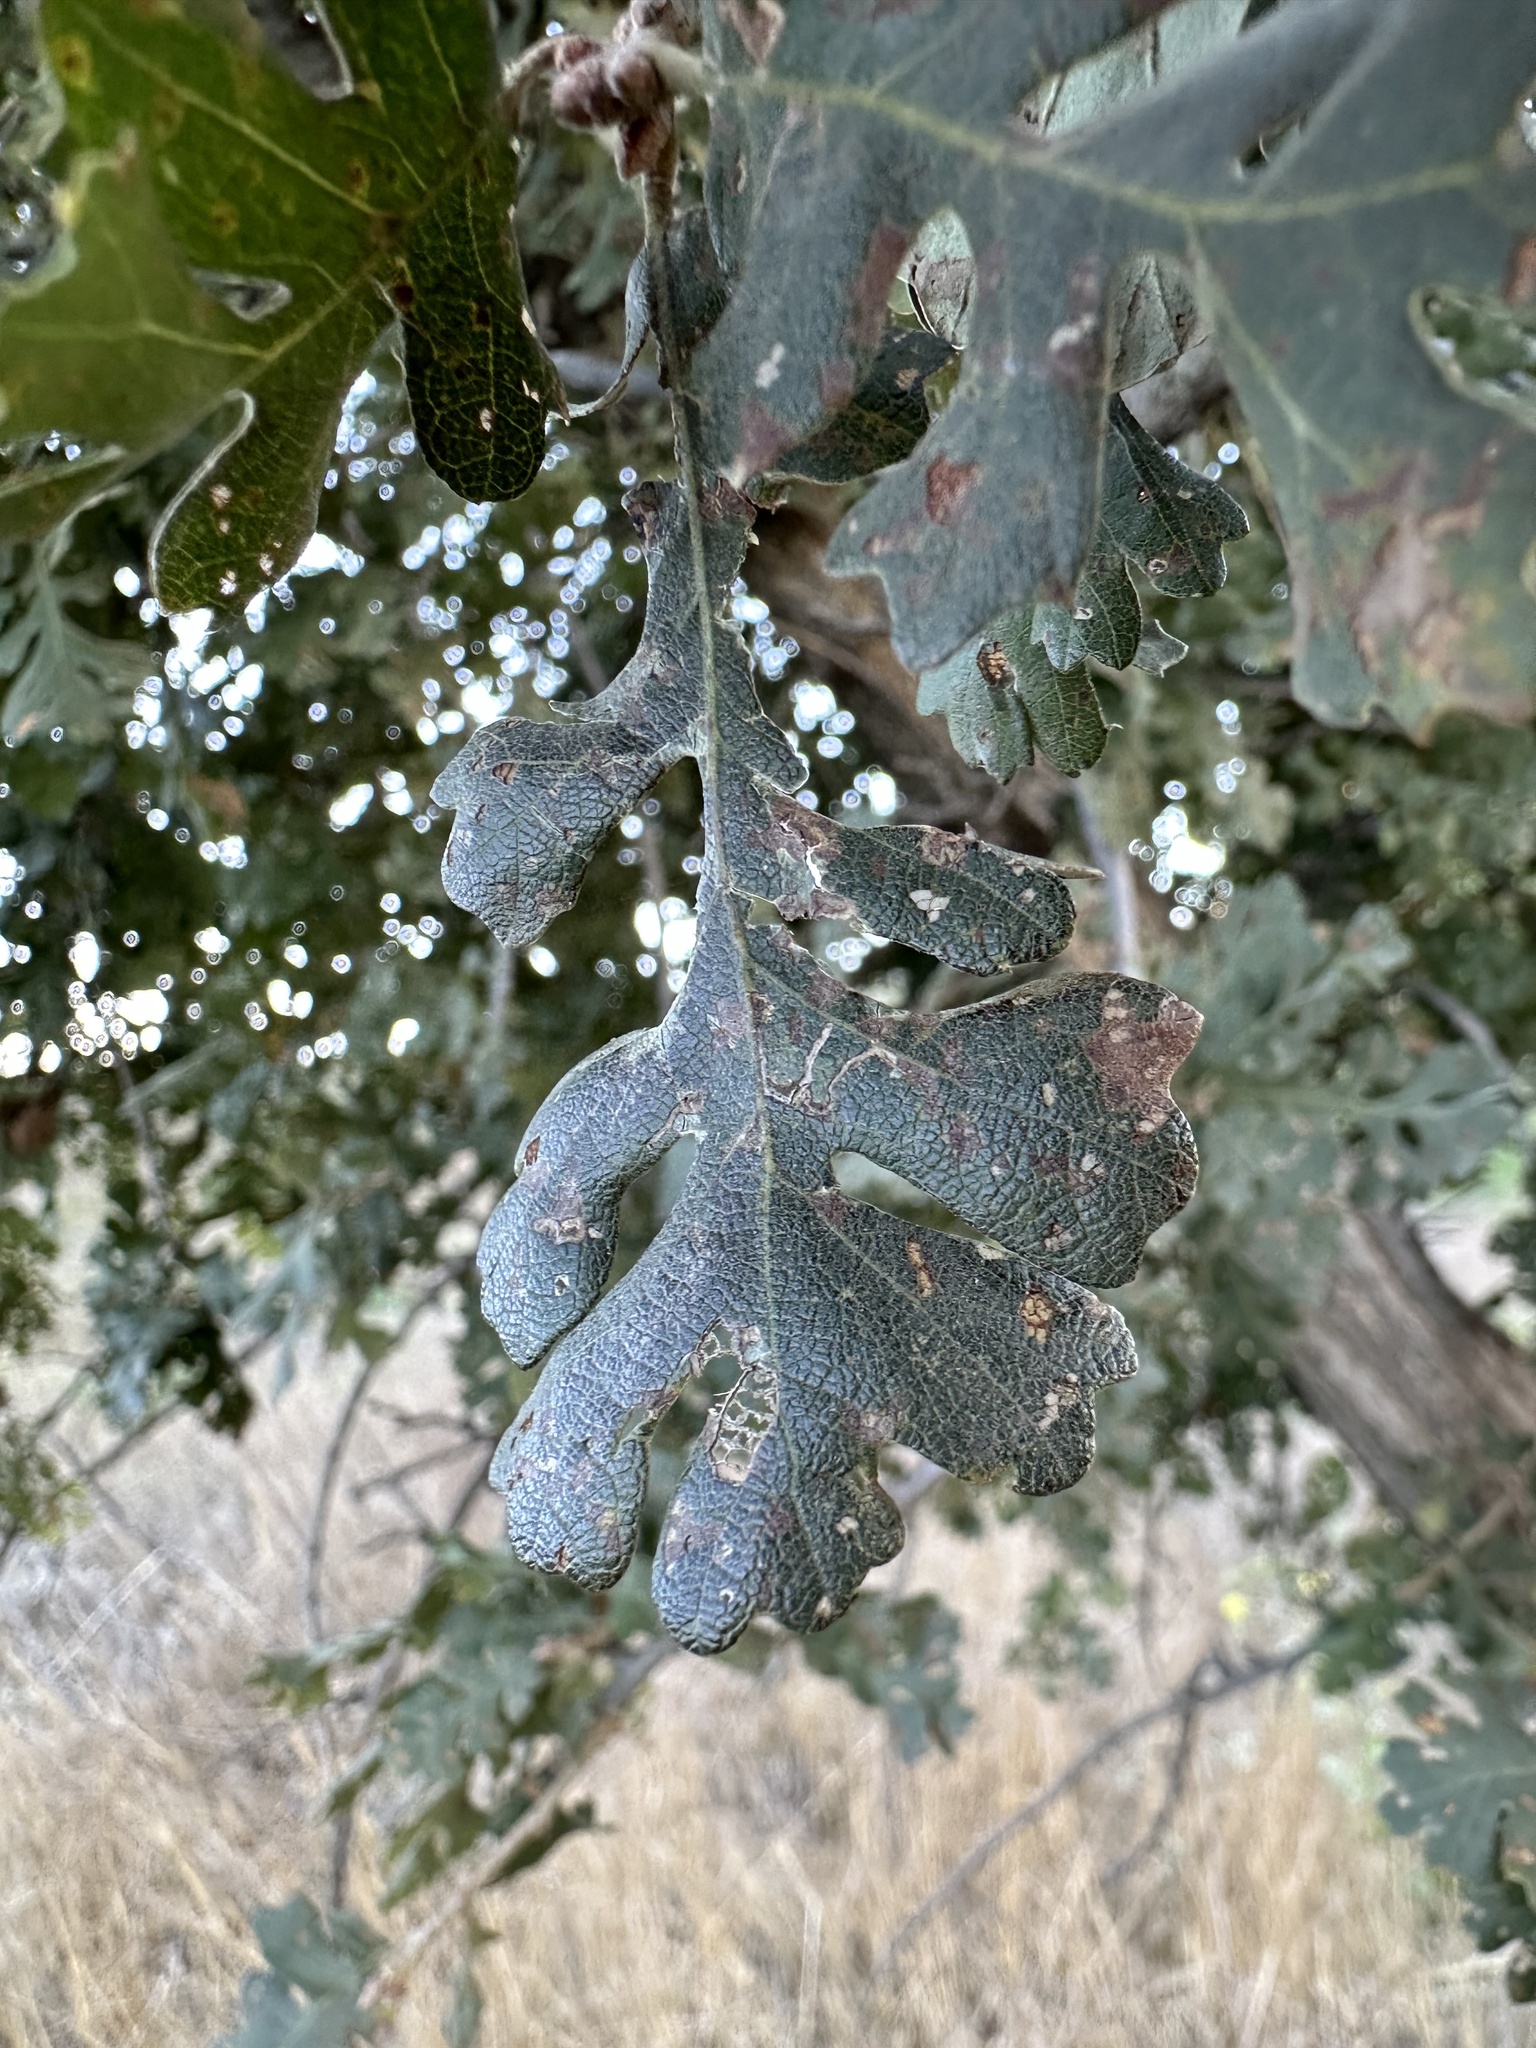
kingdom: Plantae
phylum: Tracheophyta
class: Magnoliopsida
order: Fagales
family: Fagaceae
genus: Quercus
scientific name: Quercus lobata
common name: Valley oak
